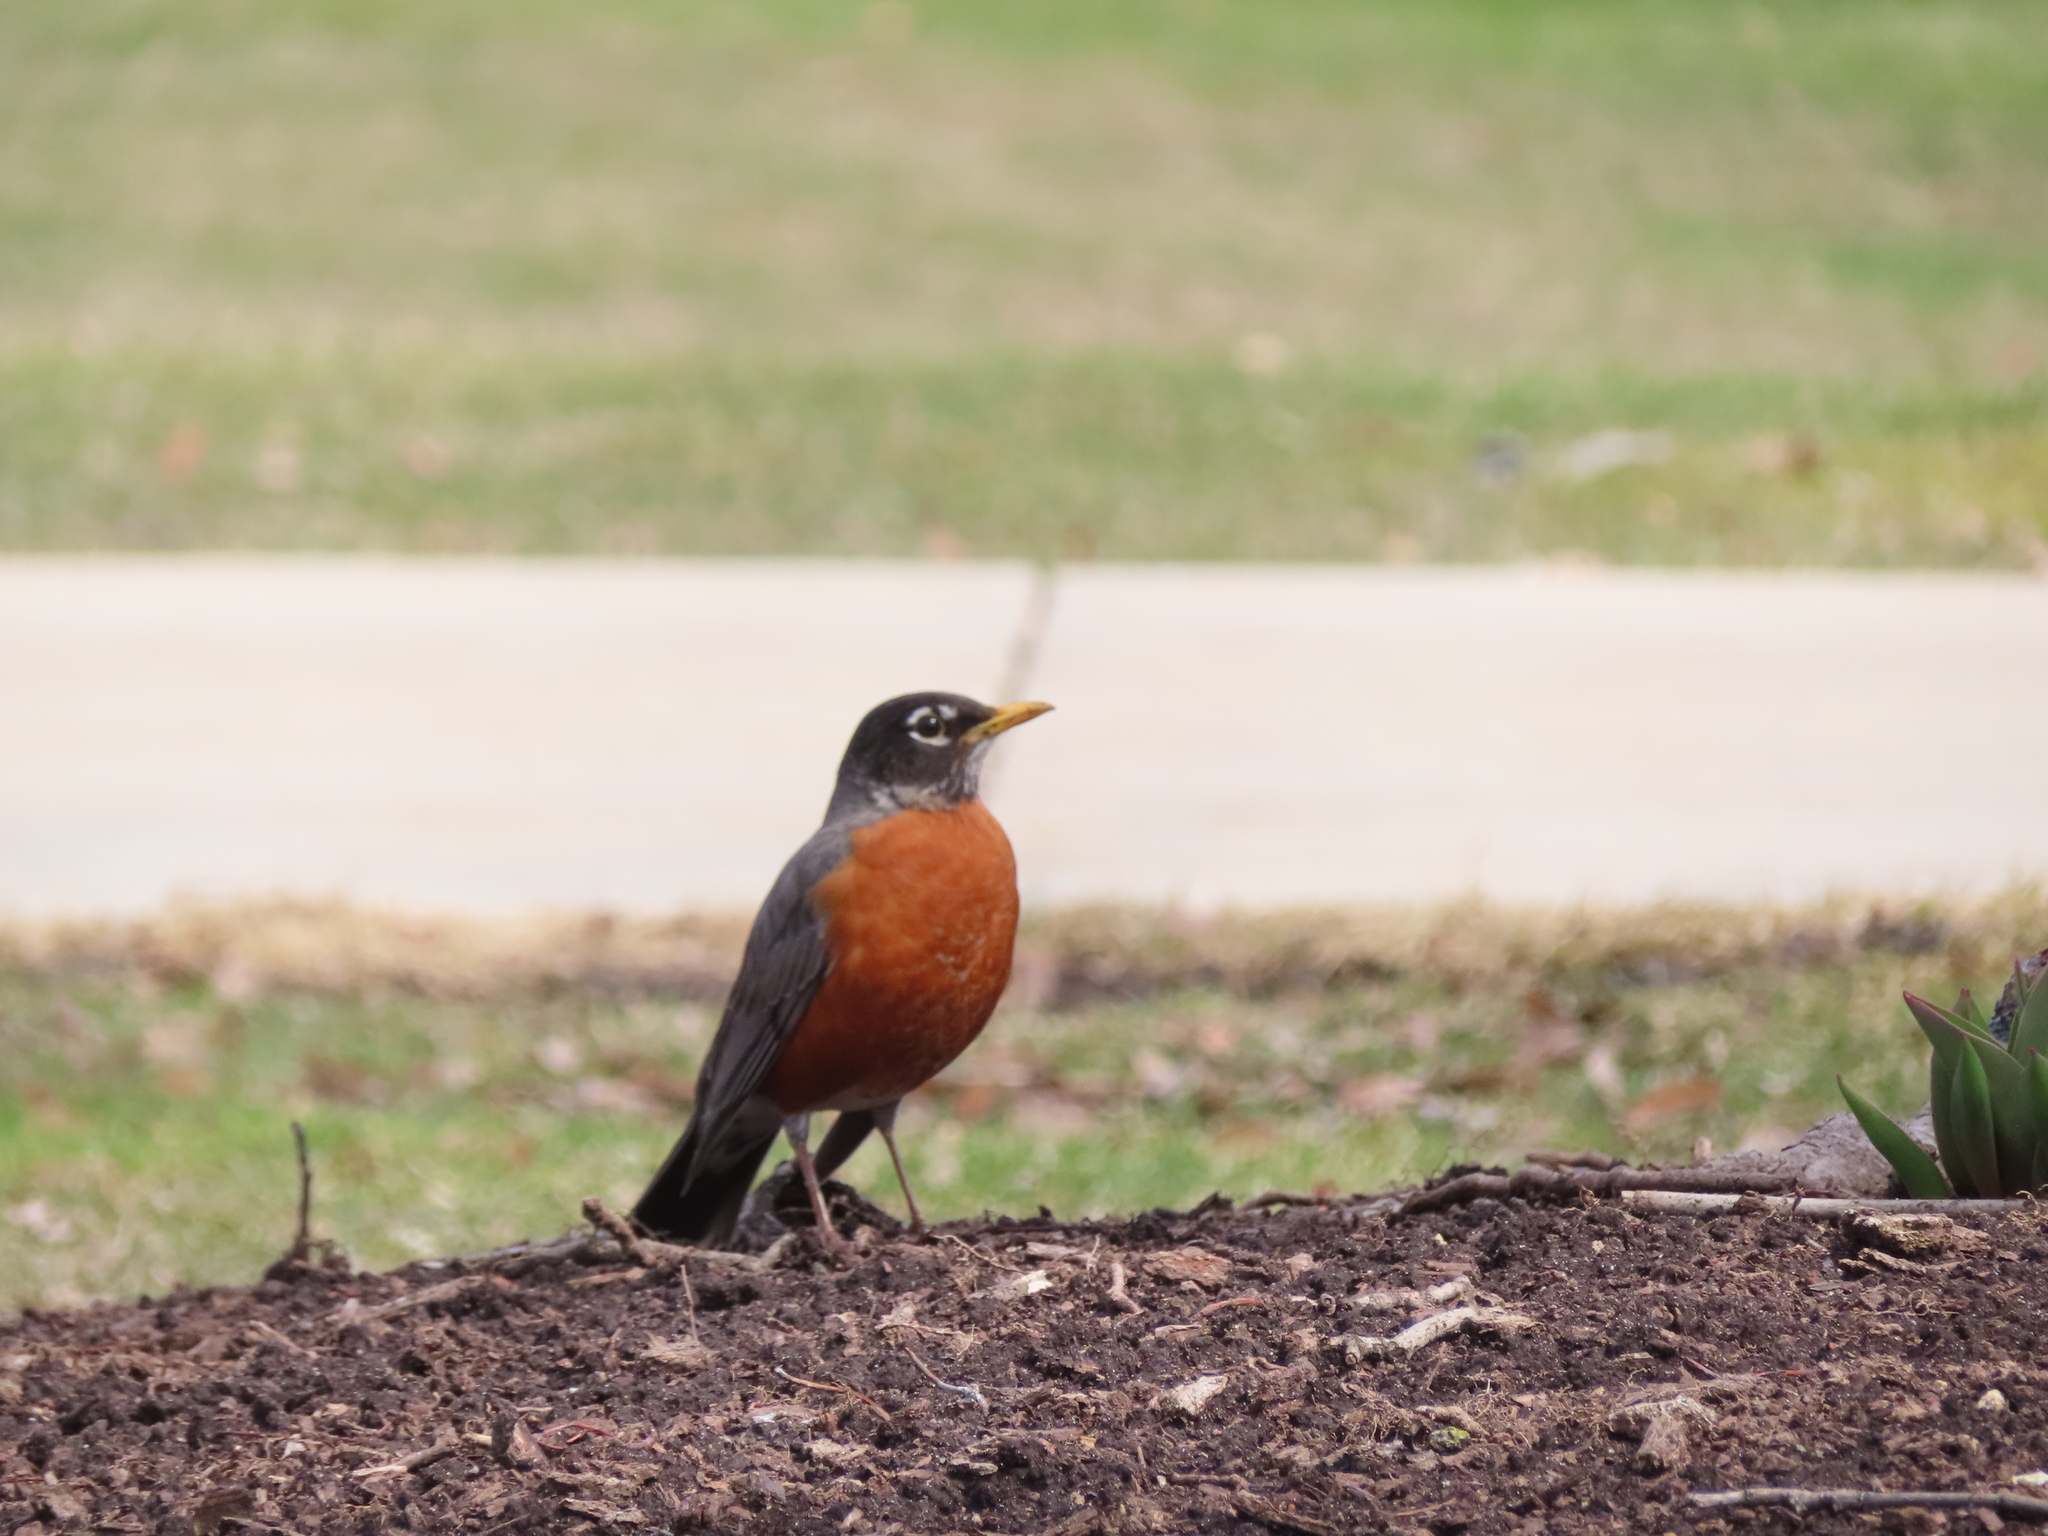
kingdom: Animalia
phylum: Chordata
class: Aves
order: Passeriformes
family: Turdidae
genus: Turdus
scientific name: Turdus migratorius
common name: American robin
